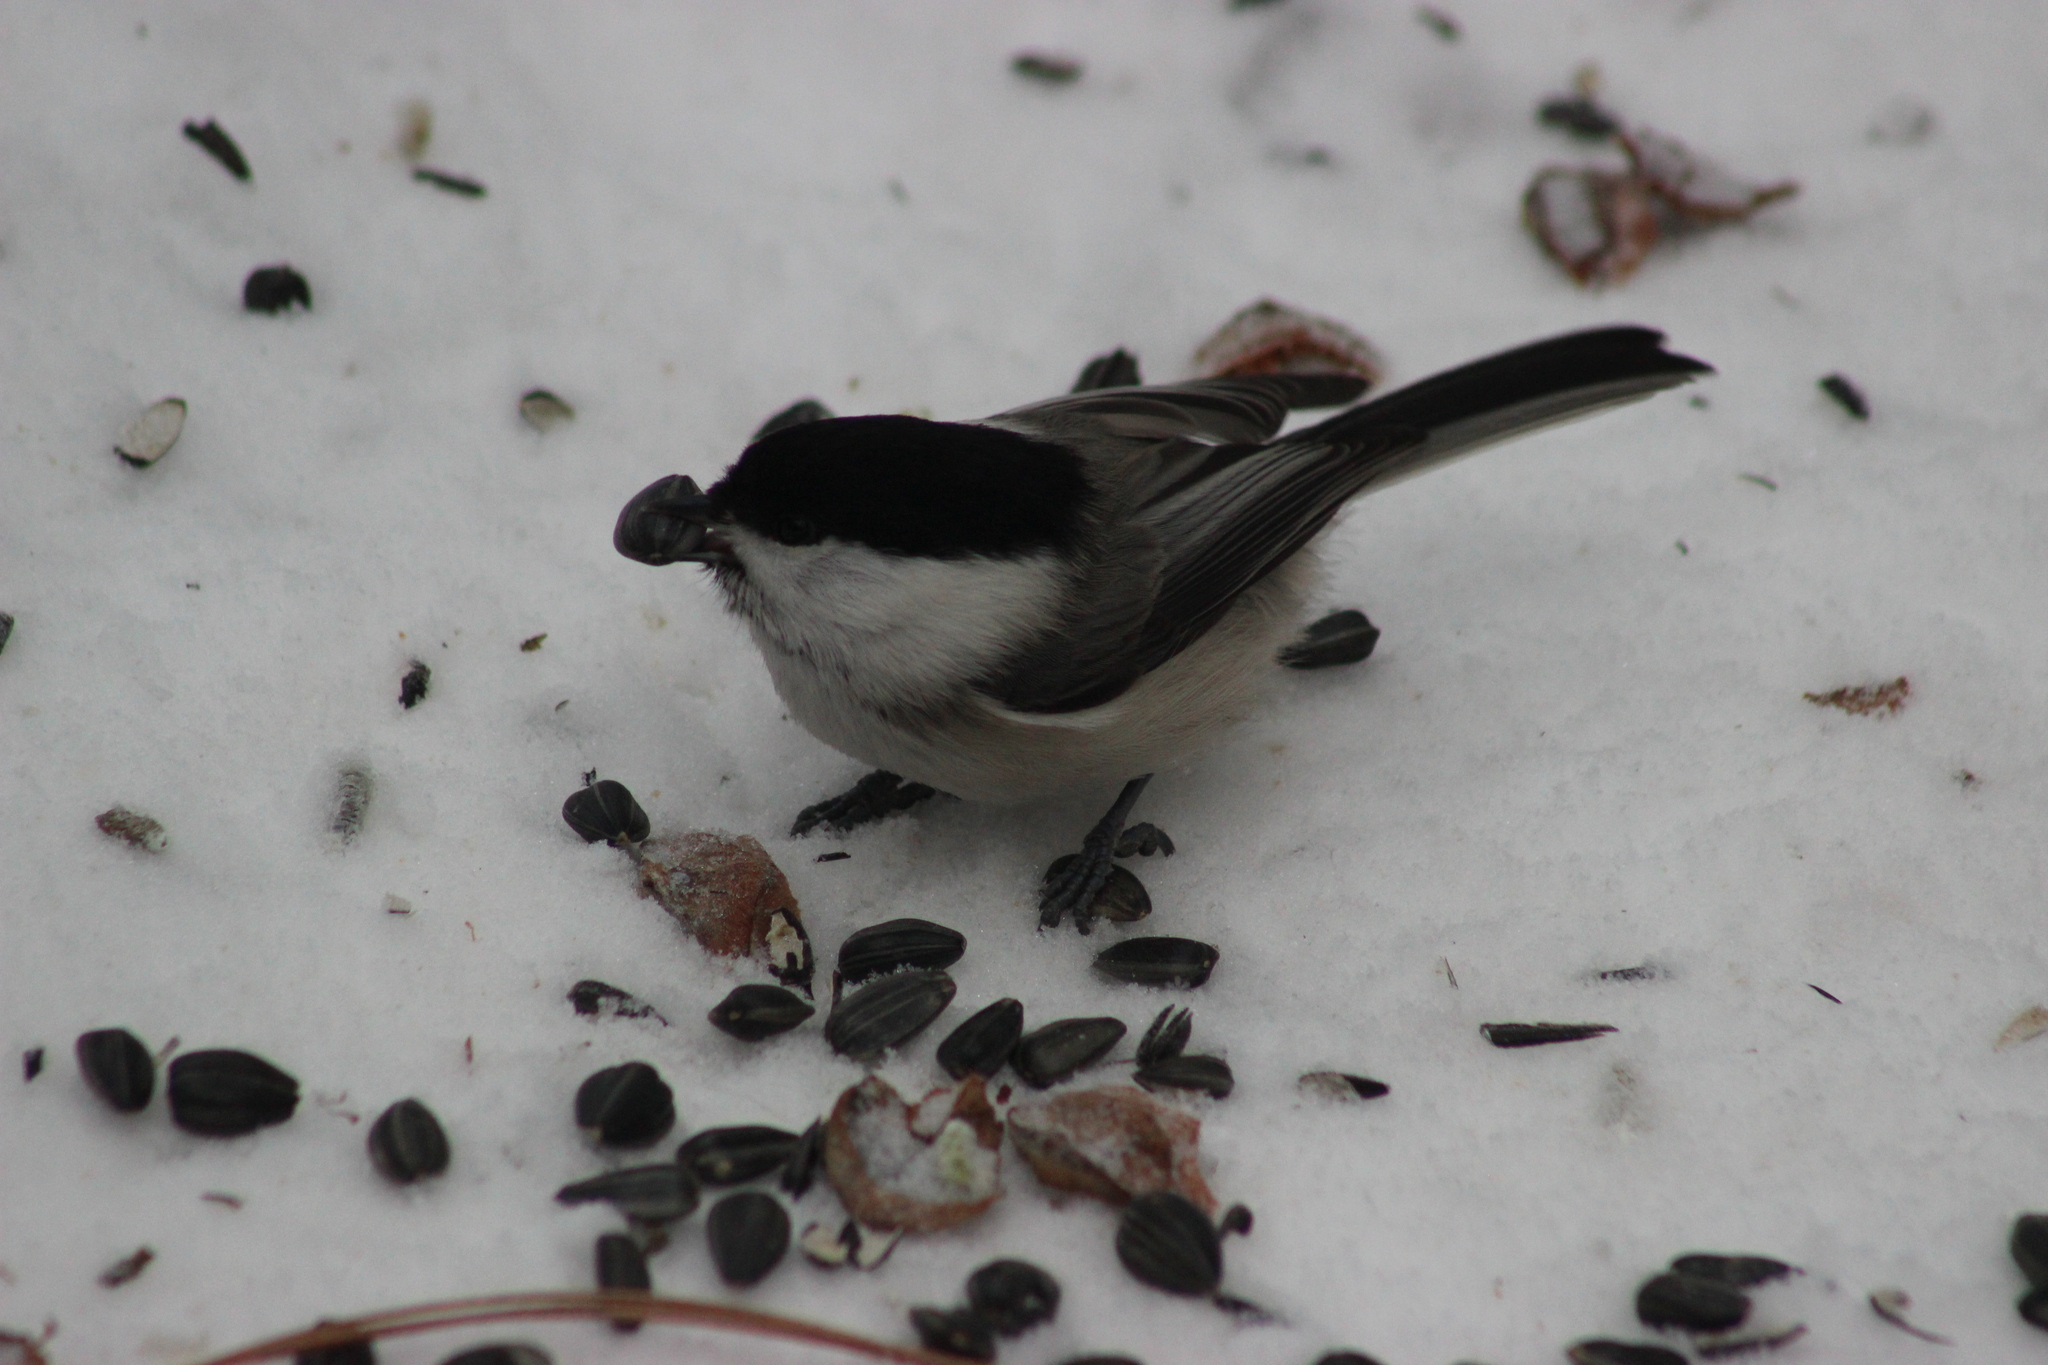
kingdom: Animalia
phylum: Chordata
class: Aves
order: Passeriformes
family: Paridae
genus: Poecile
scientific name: Poecile montanus
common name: Willow tit
